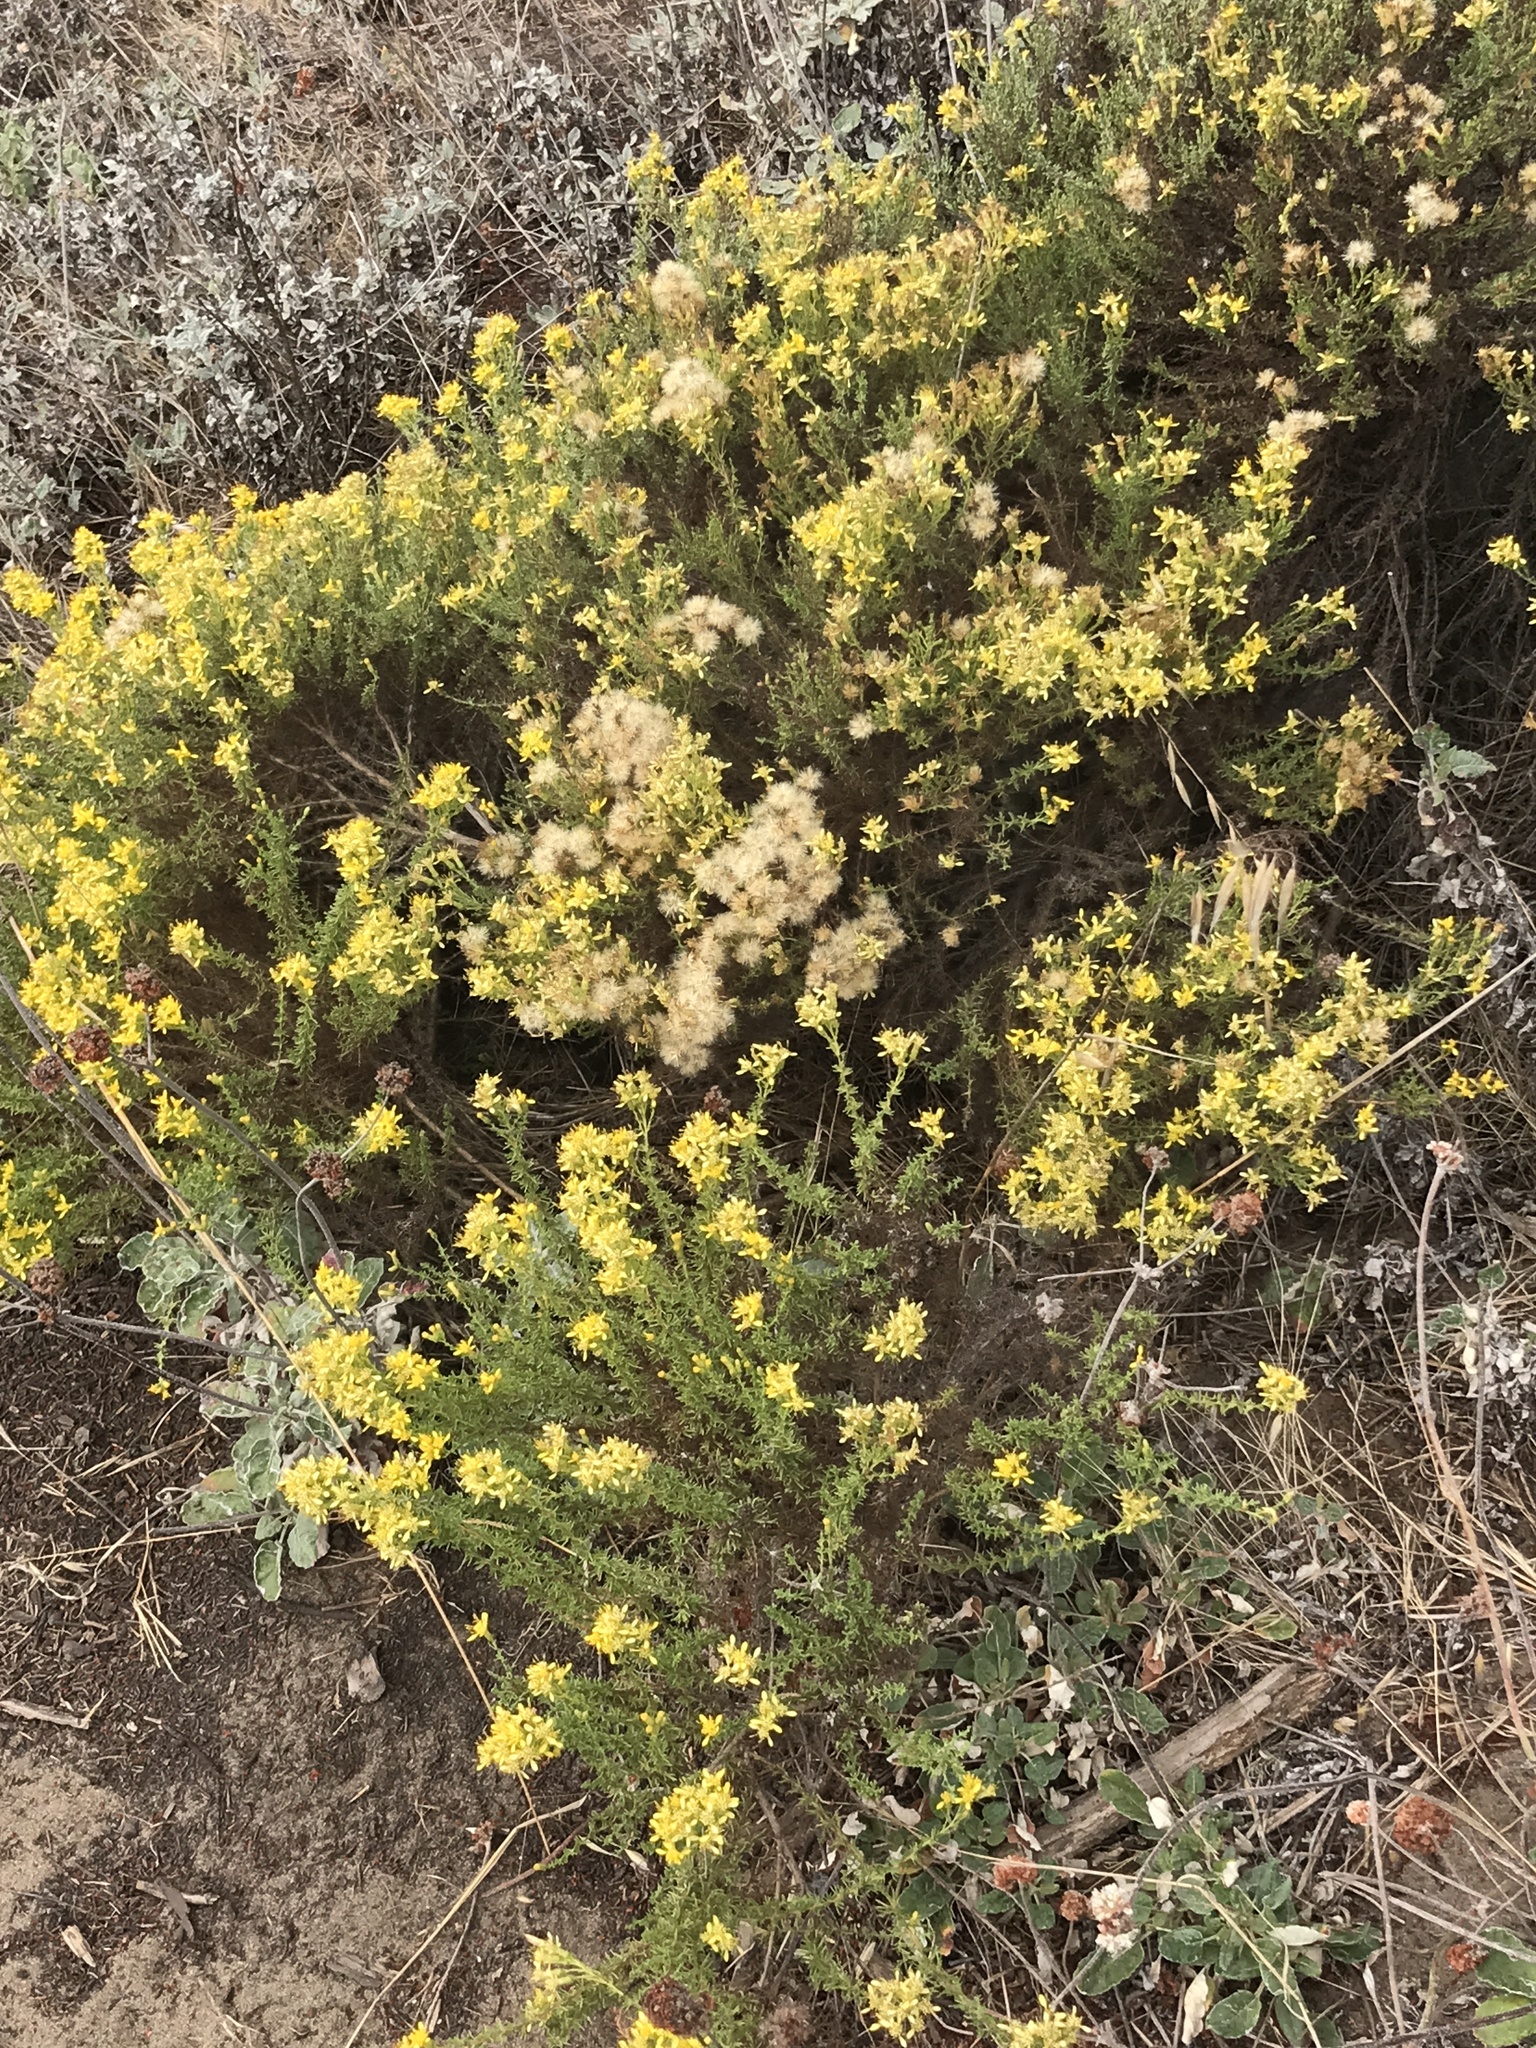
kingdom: Plantae
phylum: Tracheophyta
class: Magnoliopsida
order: Asterales
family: Asteraceae
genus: Ericameria
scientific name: Ericameria ericoides
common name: California goldenbush
